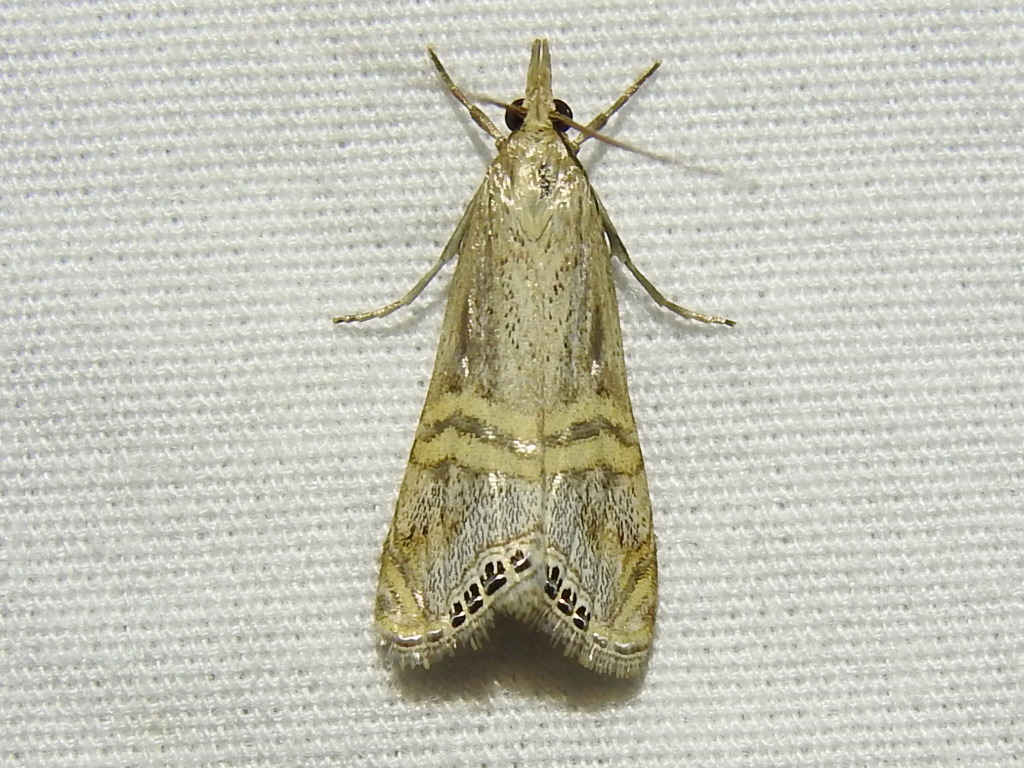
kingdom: Animalia
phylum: Arthropoda
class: Insecta
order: Lepidoptera
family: Crambidae
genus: Euchromius
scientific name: Euchromius ocellea
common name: Necklace veneer moth
